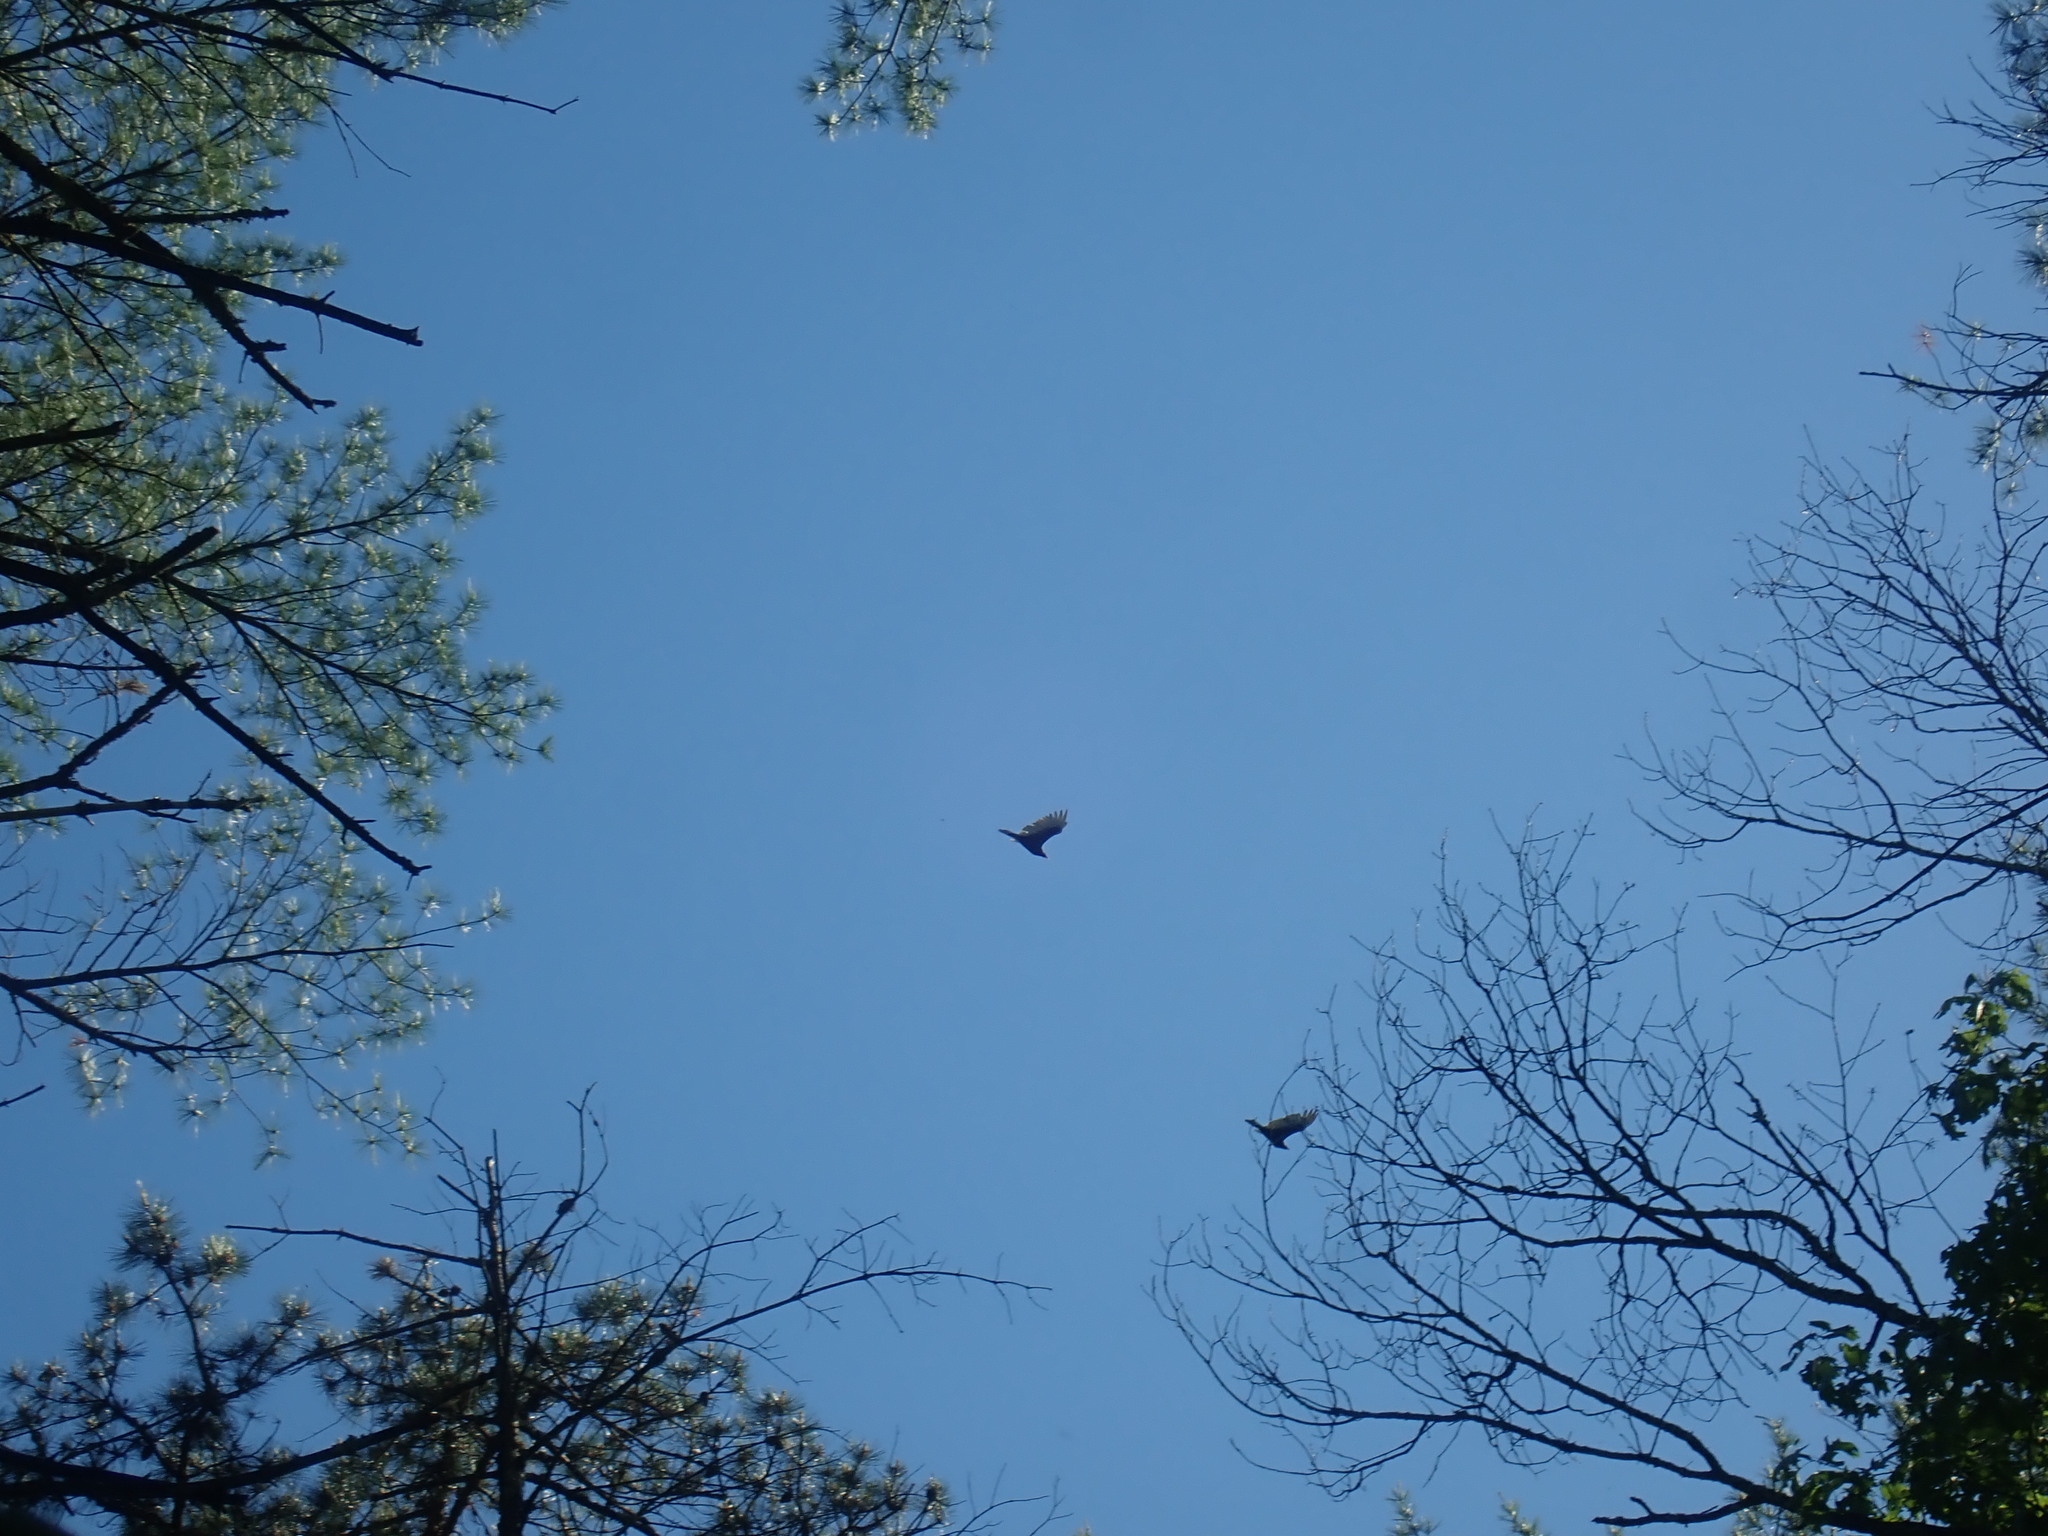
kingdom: Animalia
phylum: Chordata
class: Aves
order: Accipitriformes
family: Cathartidae
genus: Cathartes
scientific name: Cathartes aura
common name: Turkey vulture
